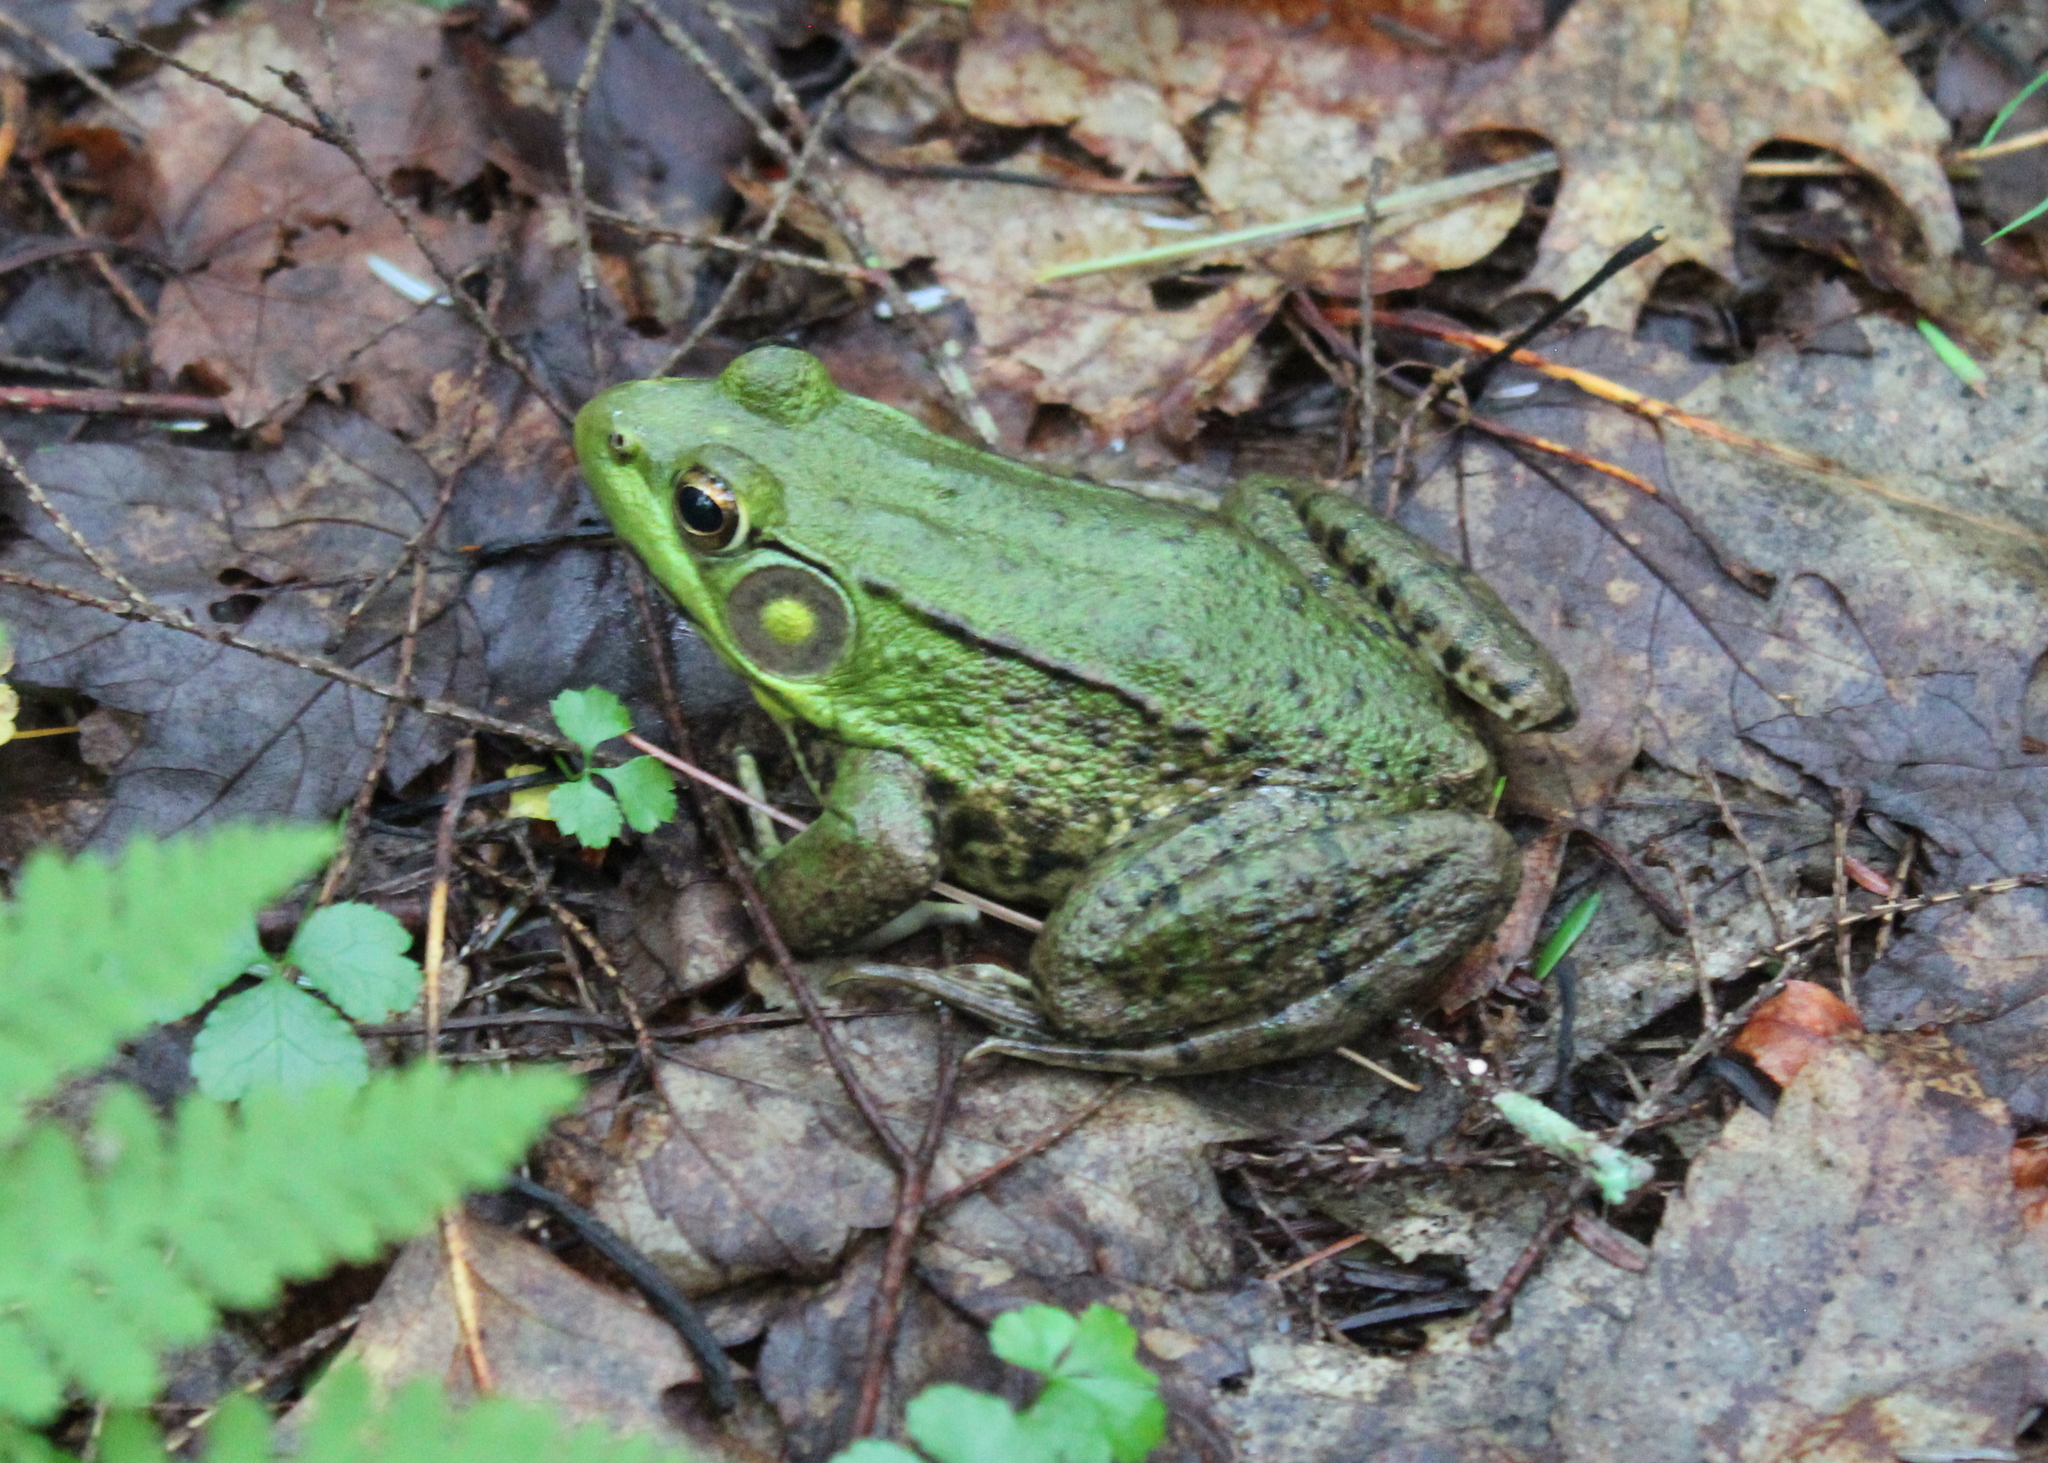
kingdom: Animalia
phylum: Chordata
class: Amphibia
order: Anura
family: Ranidae
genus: Lithobates
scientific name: Lithobates clamitans
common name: Green frog
